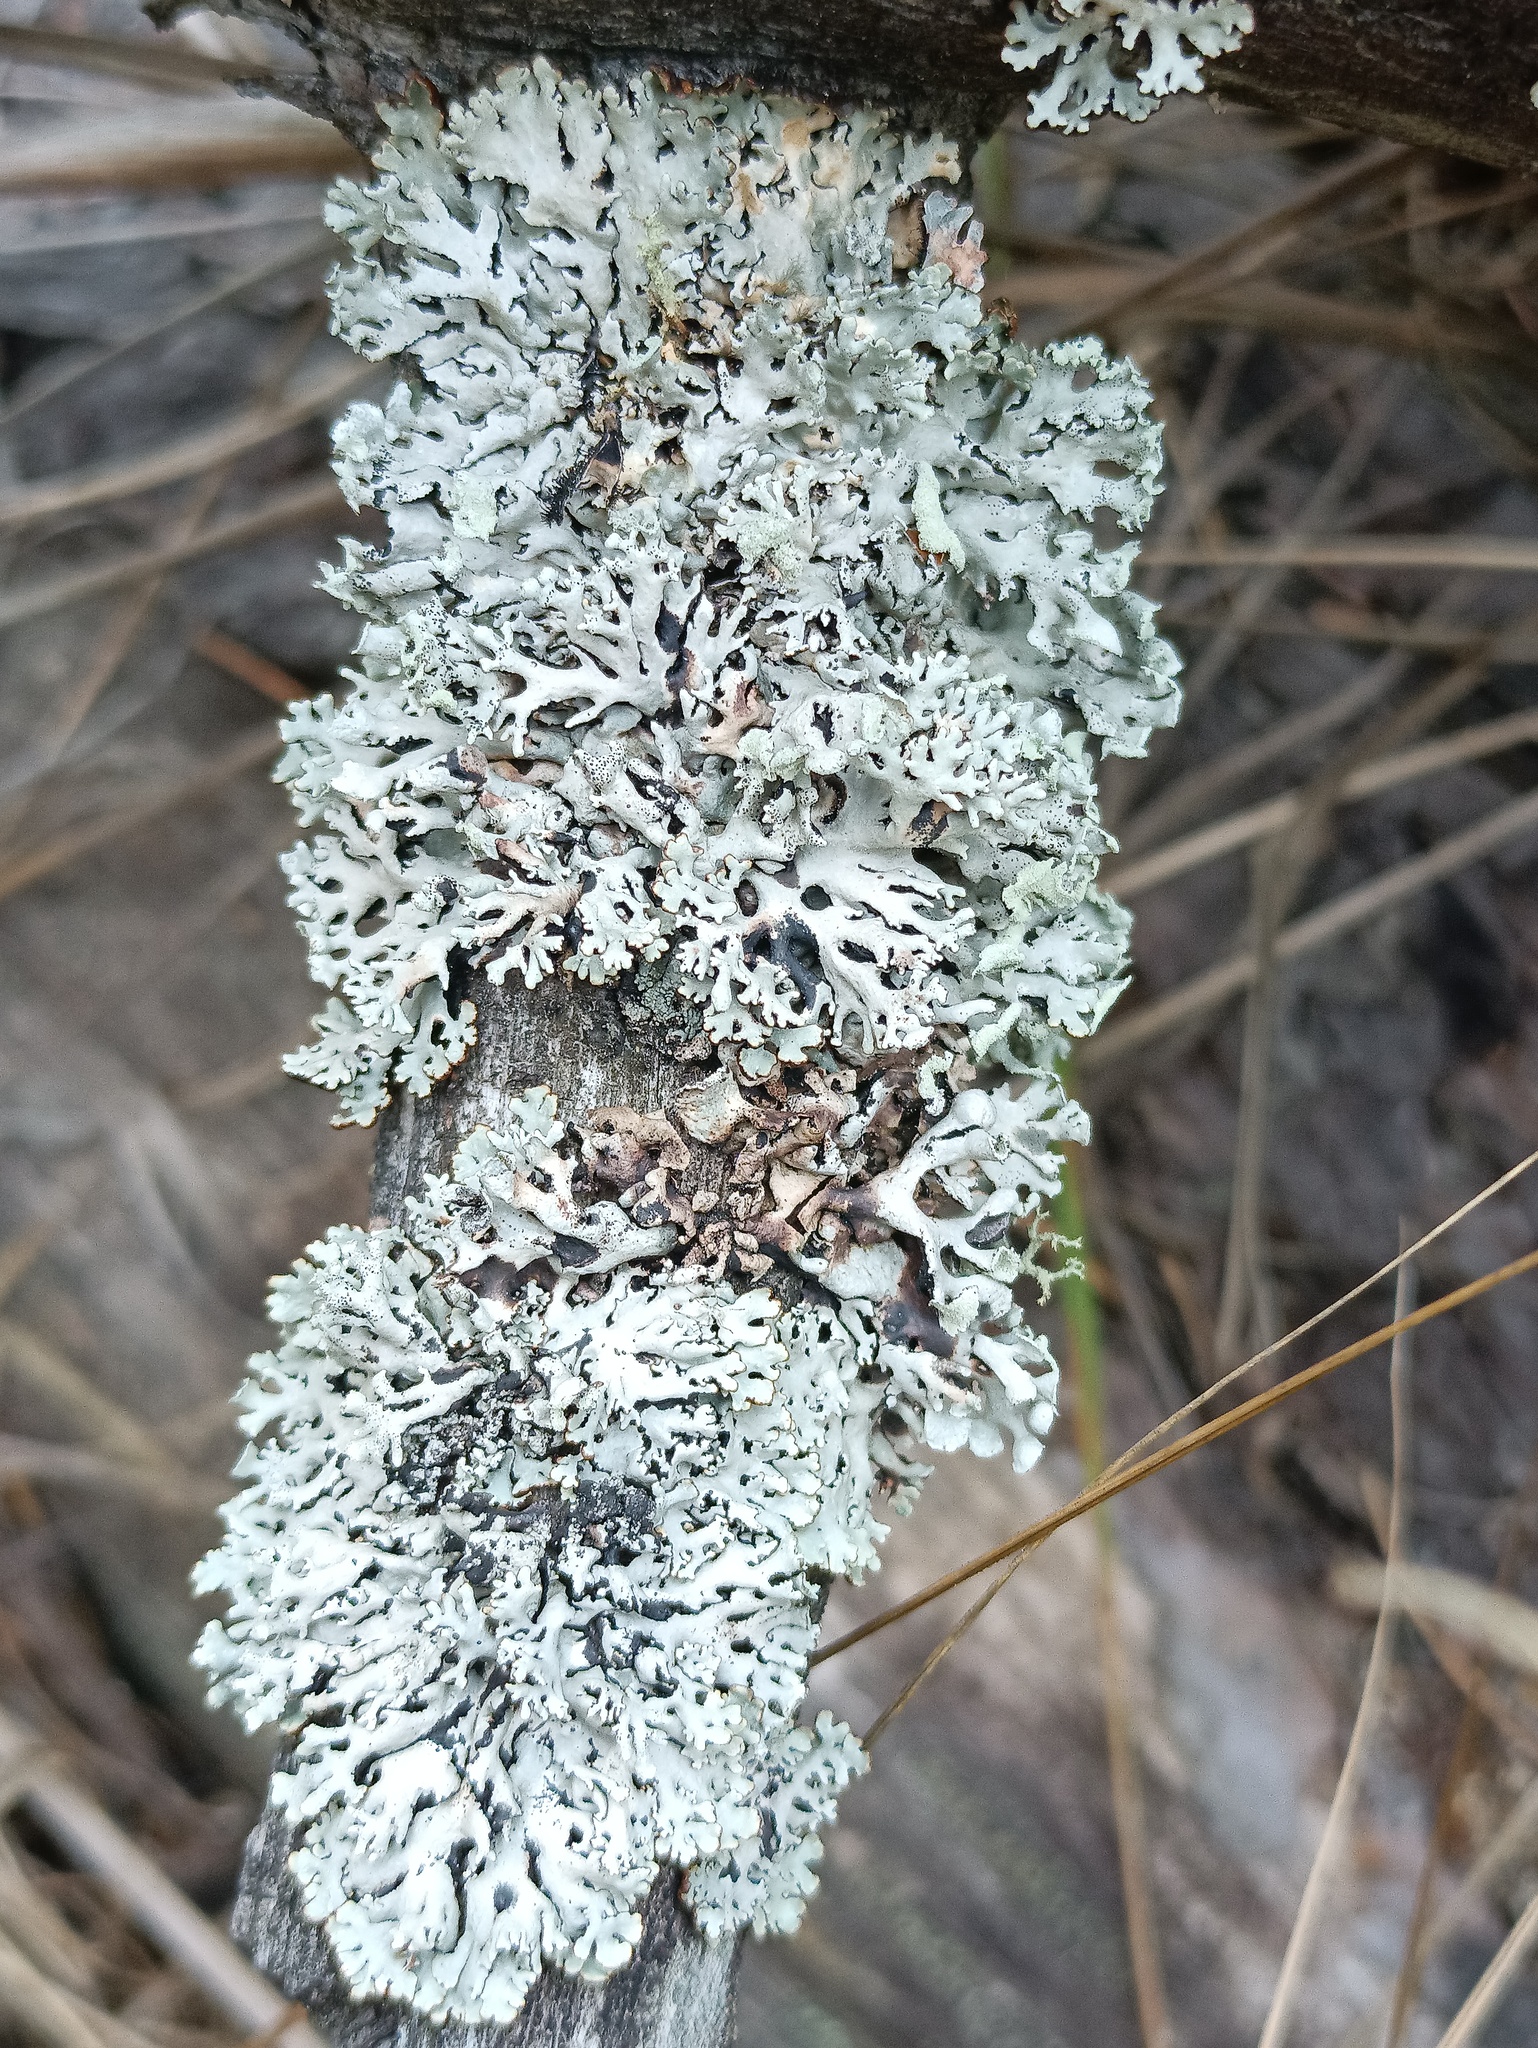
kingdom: Fungi
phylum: Ascomycota
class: Lecanoromycetes
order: Lecanorales
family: Parmeliaceae
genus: Hypogymnia
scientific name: Hypogymnia physodes
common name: Dark crottle
